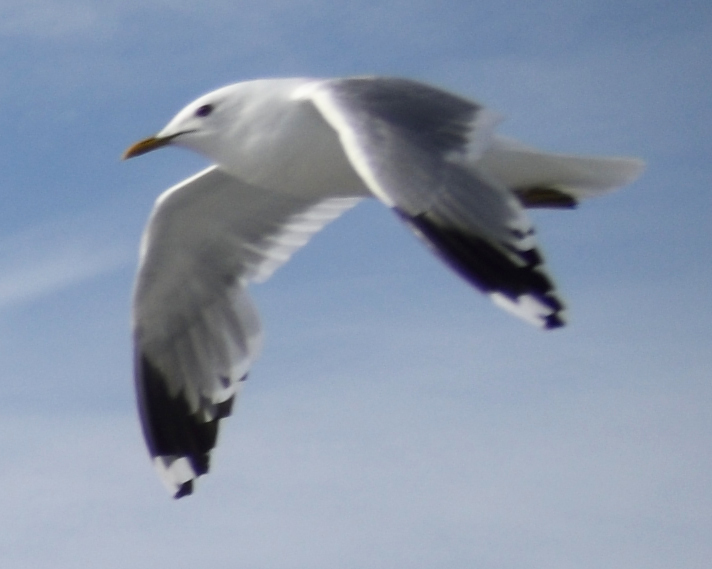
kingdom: Animalia
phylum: Chordata
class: Aves
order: Charadriiformes
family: Laridae
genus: Larus
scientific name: Larus canus
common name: Mew gull
